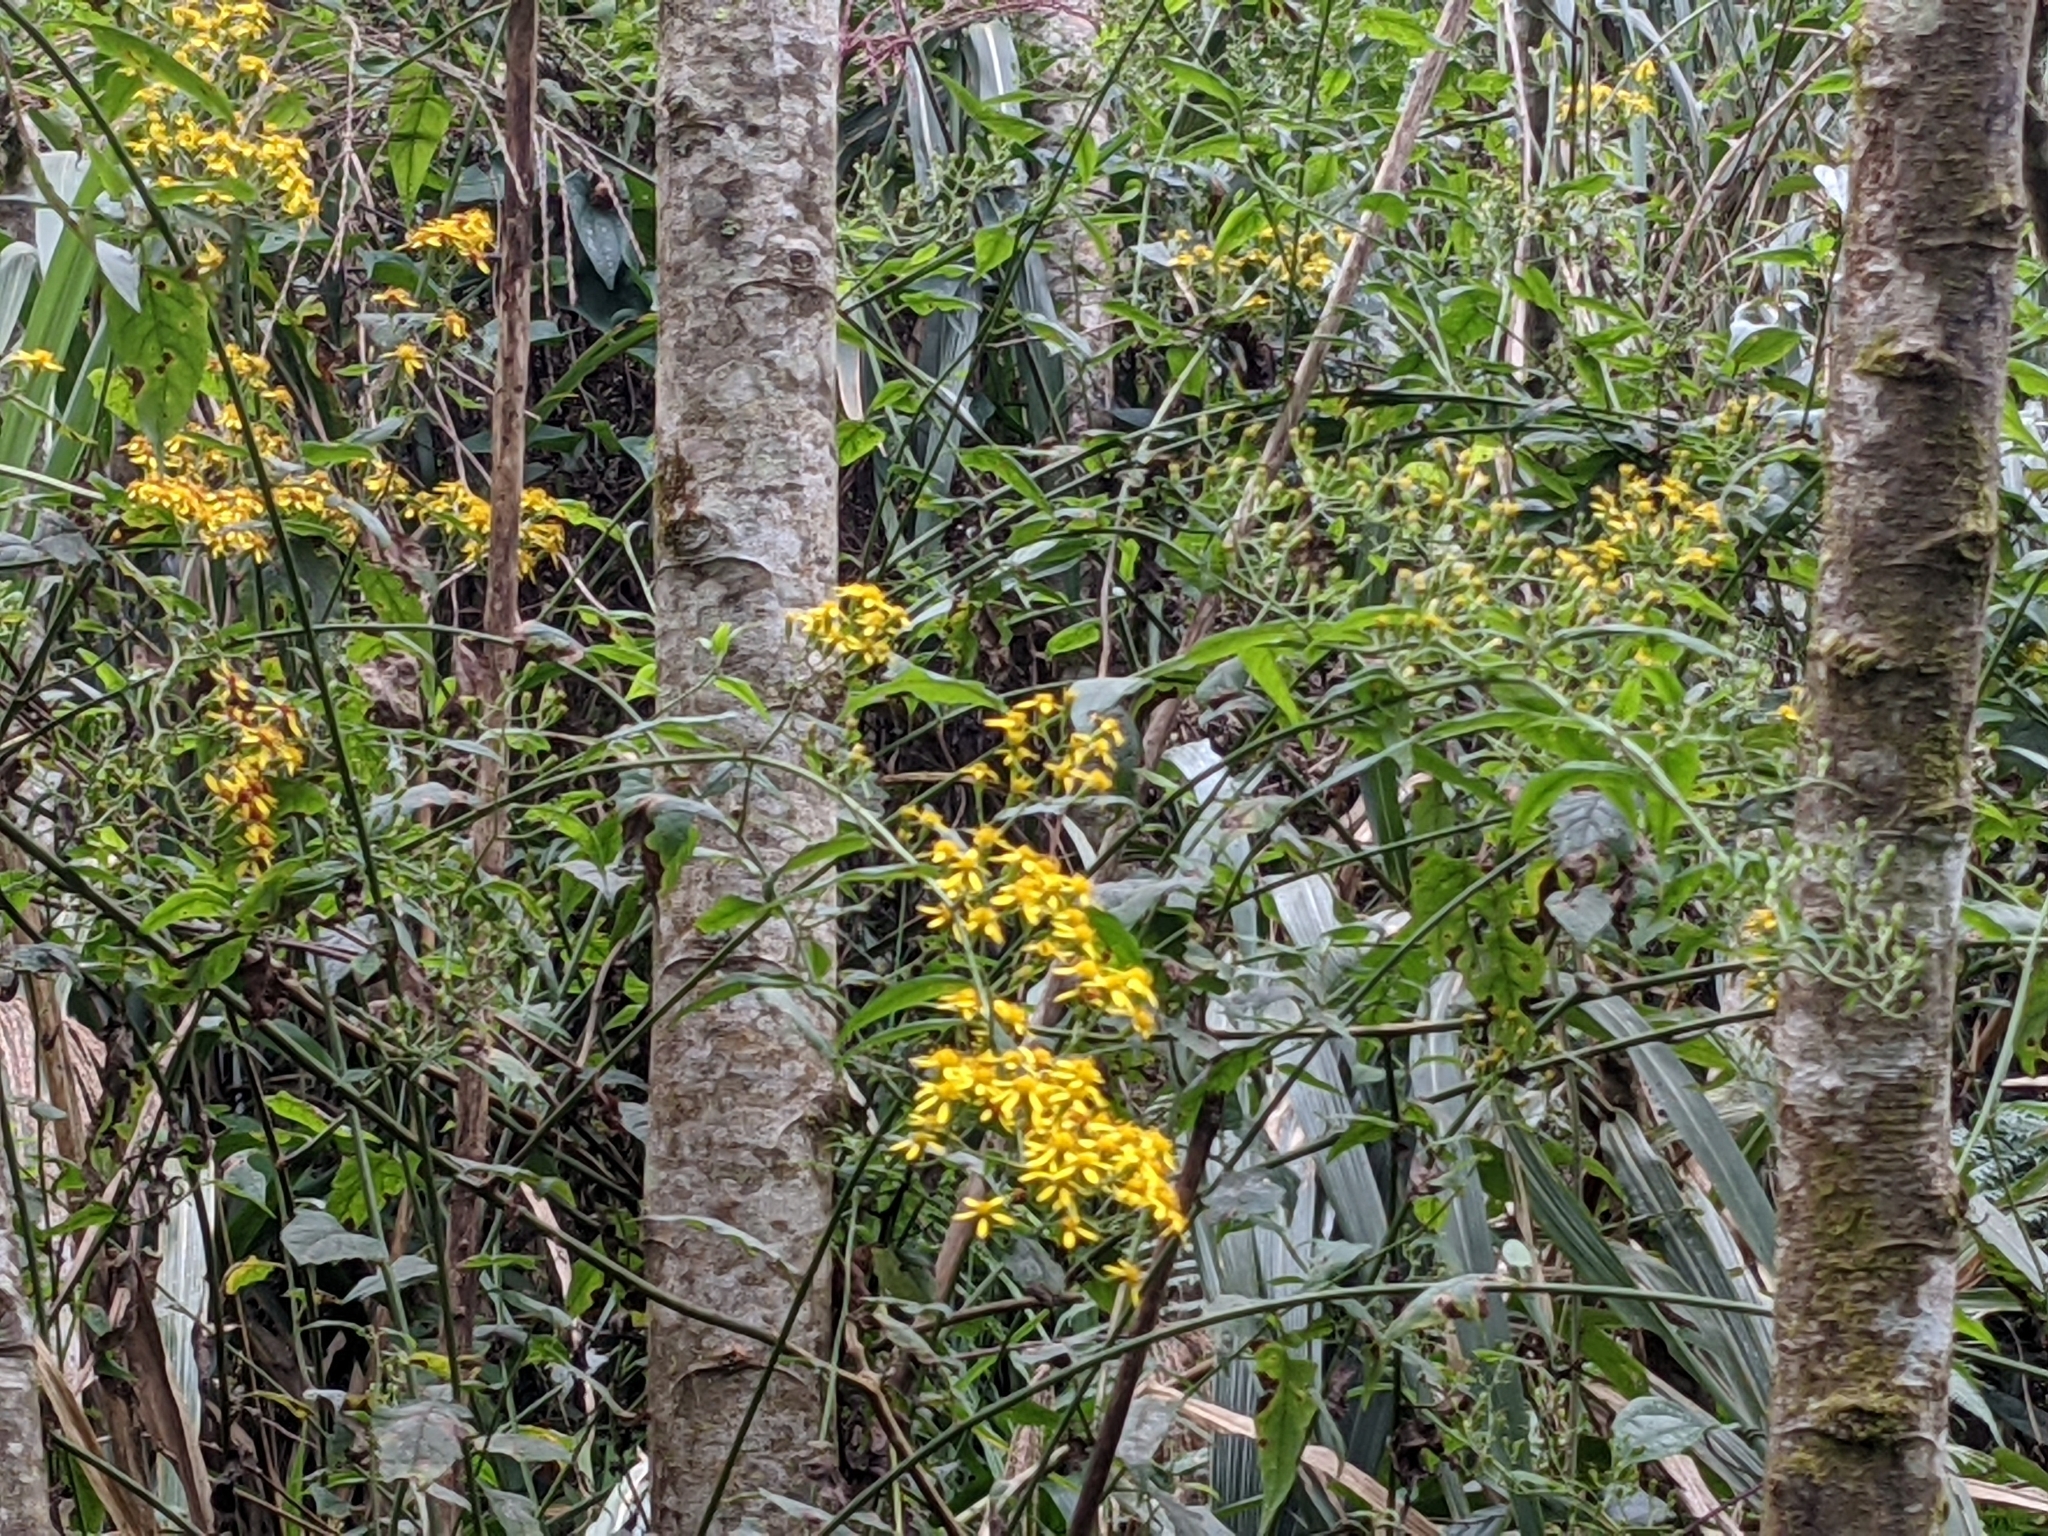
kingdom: Plantae
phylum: Tracheophyta
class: Magnoliopsida
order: Asterales
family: Asteraceae
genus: Senecio
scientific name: Senecio scandens
